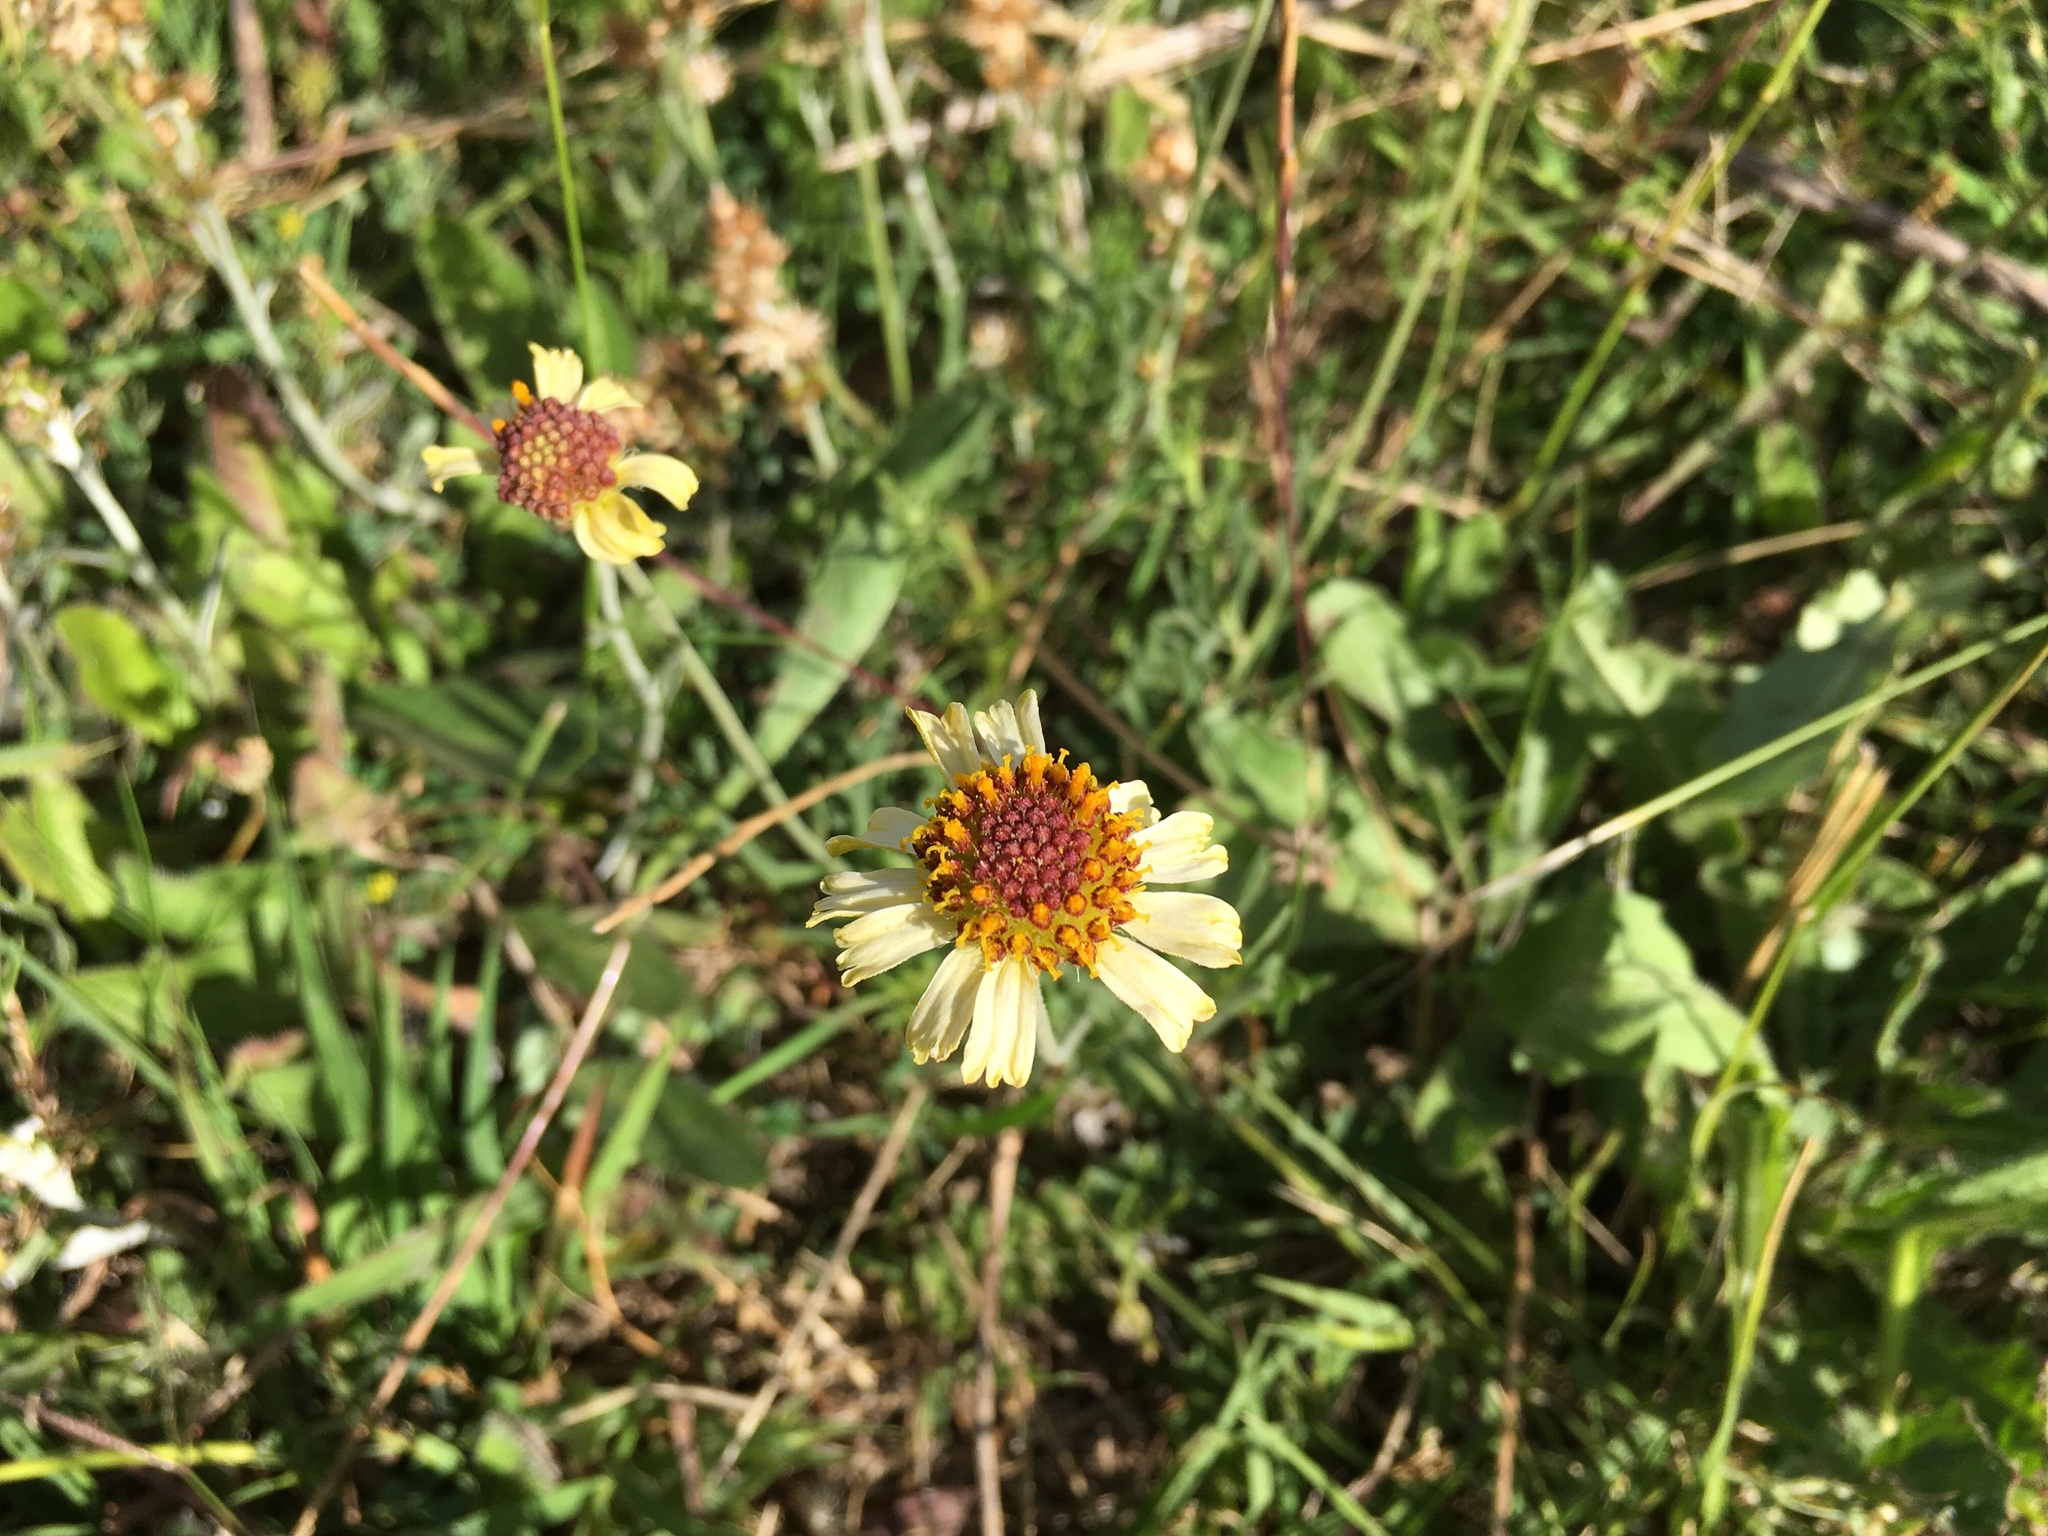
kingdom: Plantae
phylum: Tracheophyta
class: Magnoliopsida
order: Asterales
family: Asteraceae
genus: Helenium
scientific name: Helenium uniflorum
